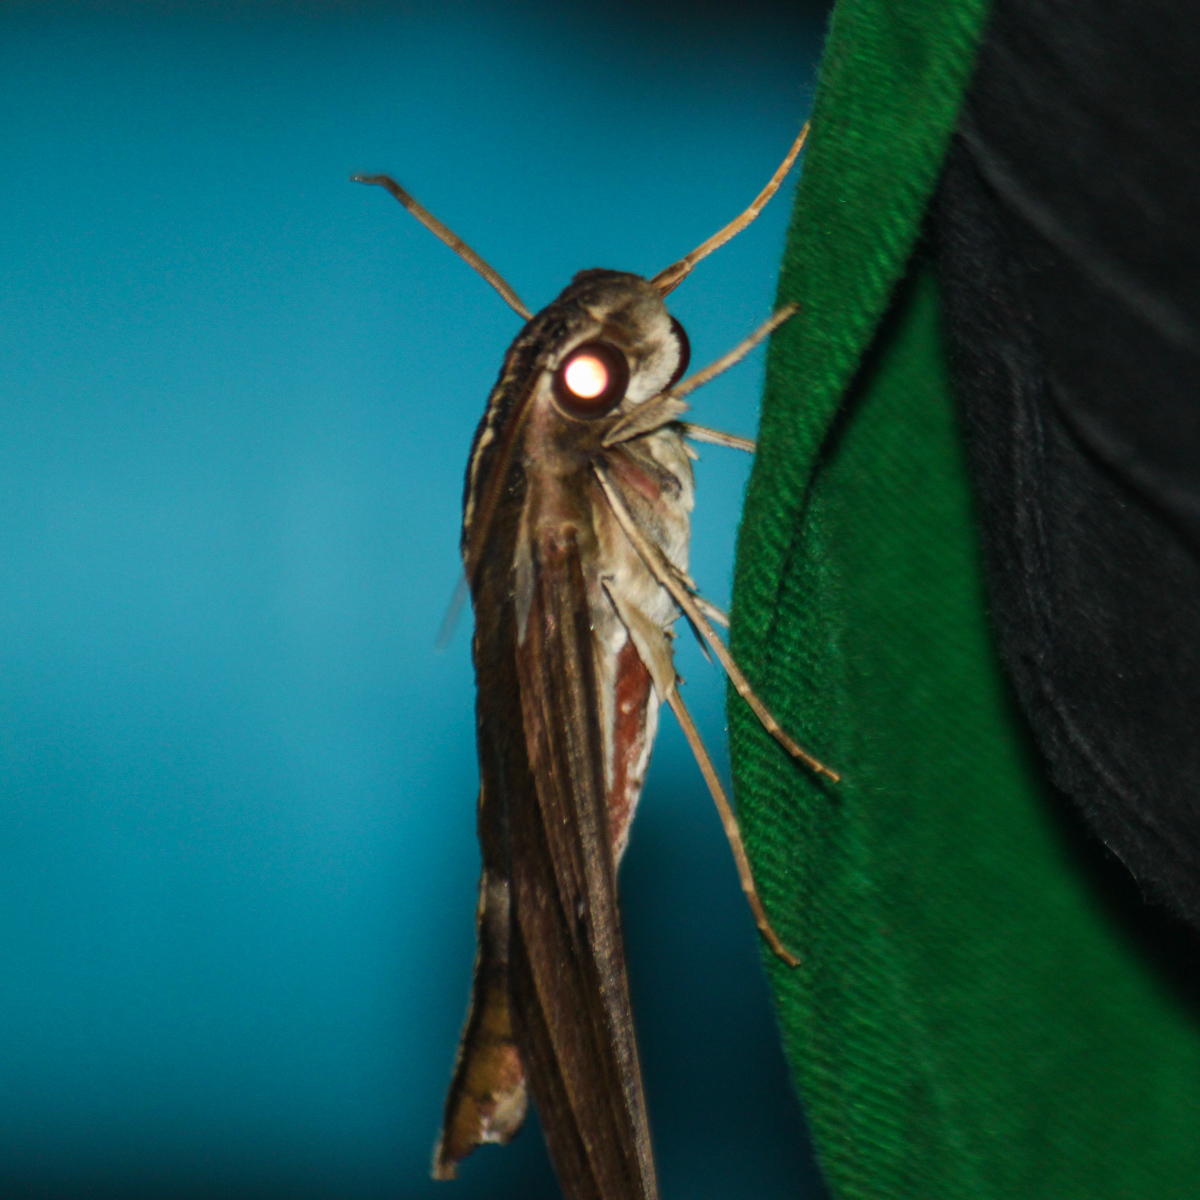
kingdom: Animalia
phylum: Arthropoda
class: Insecta
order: Lepidoptera
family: Sphingidae
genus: Elibia
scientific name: Elibia dolichus
